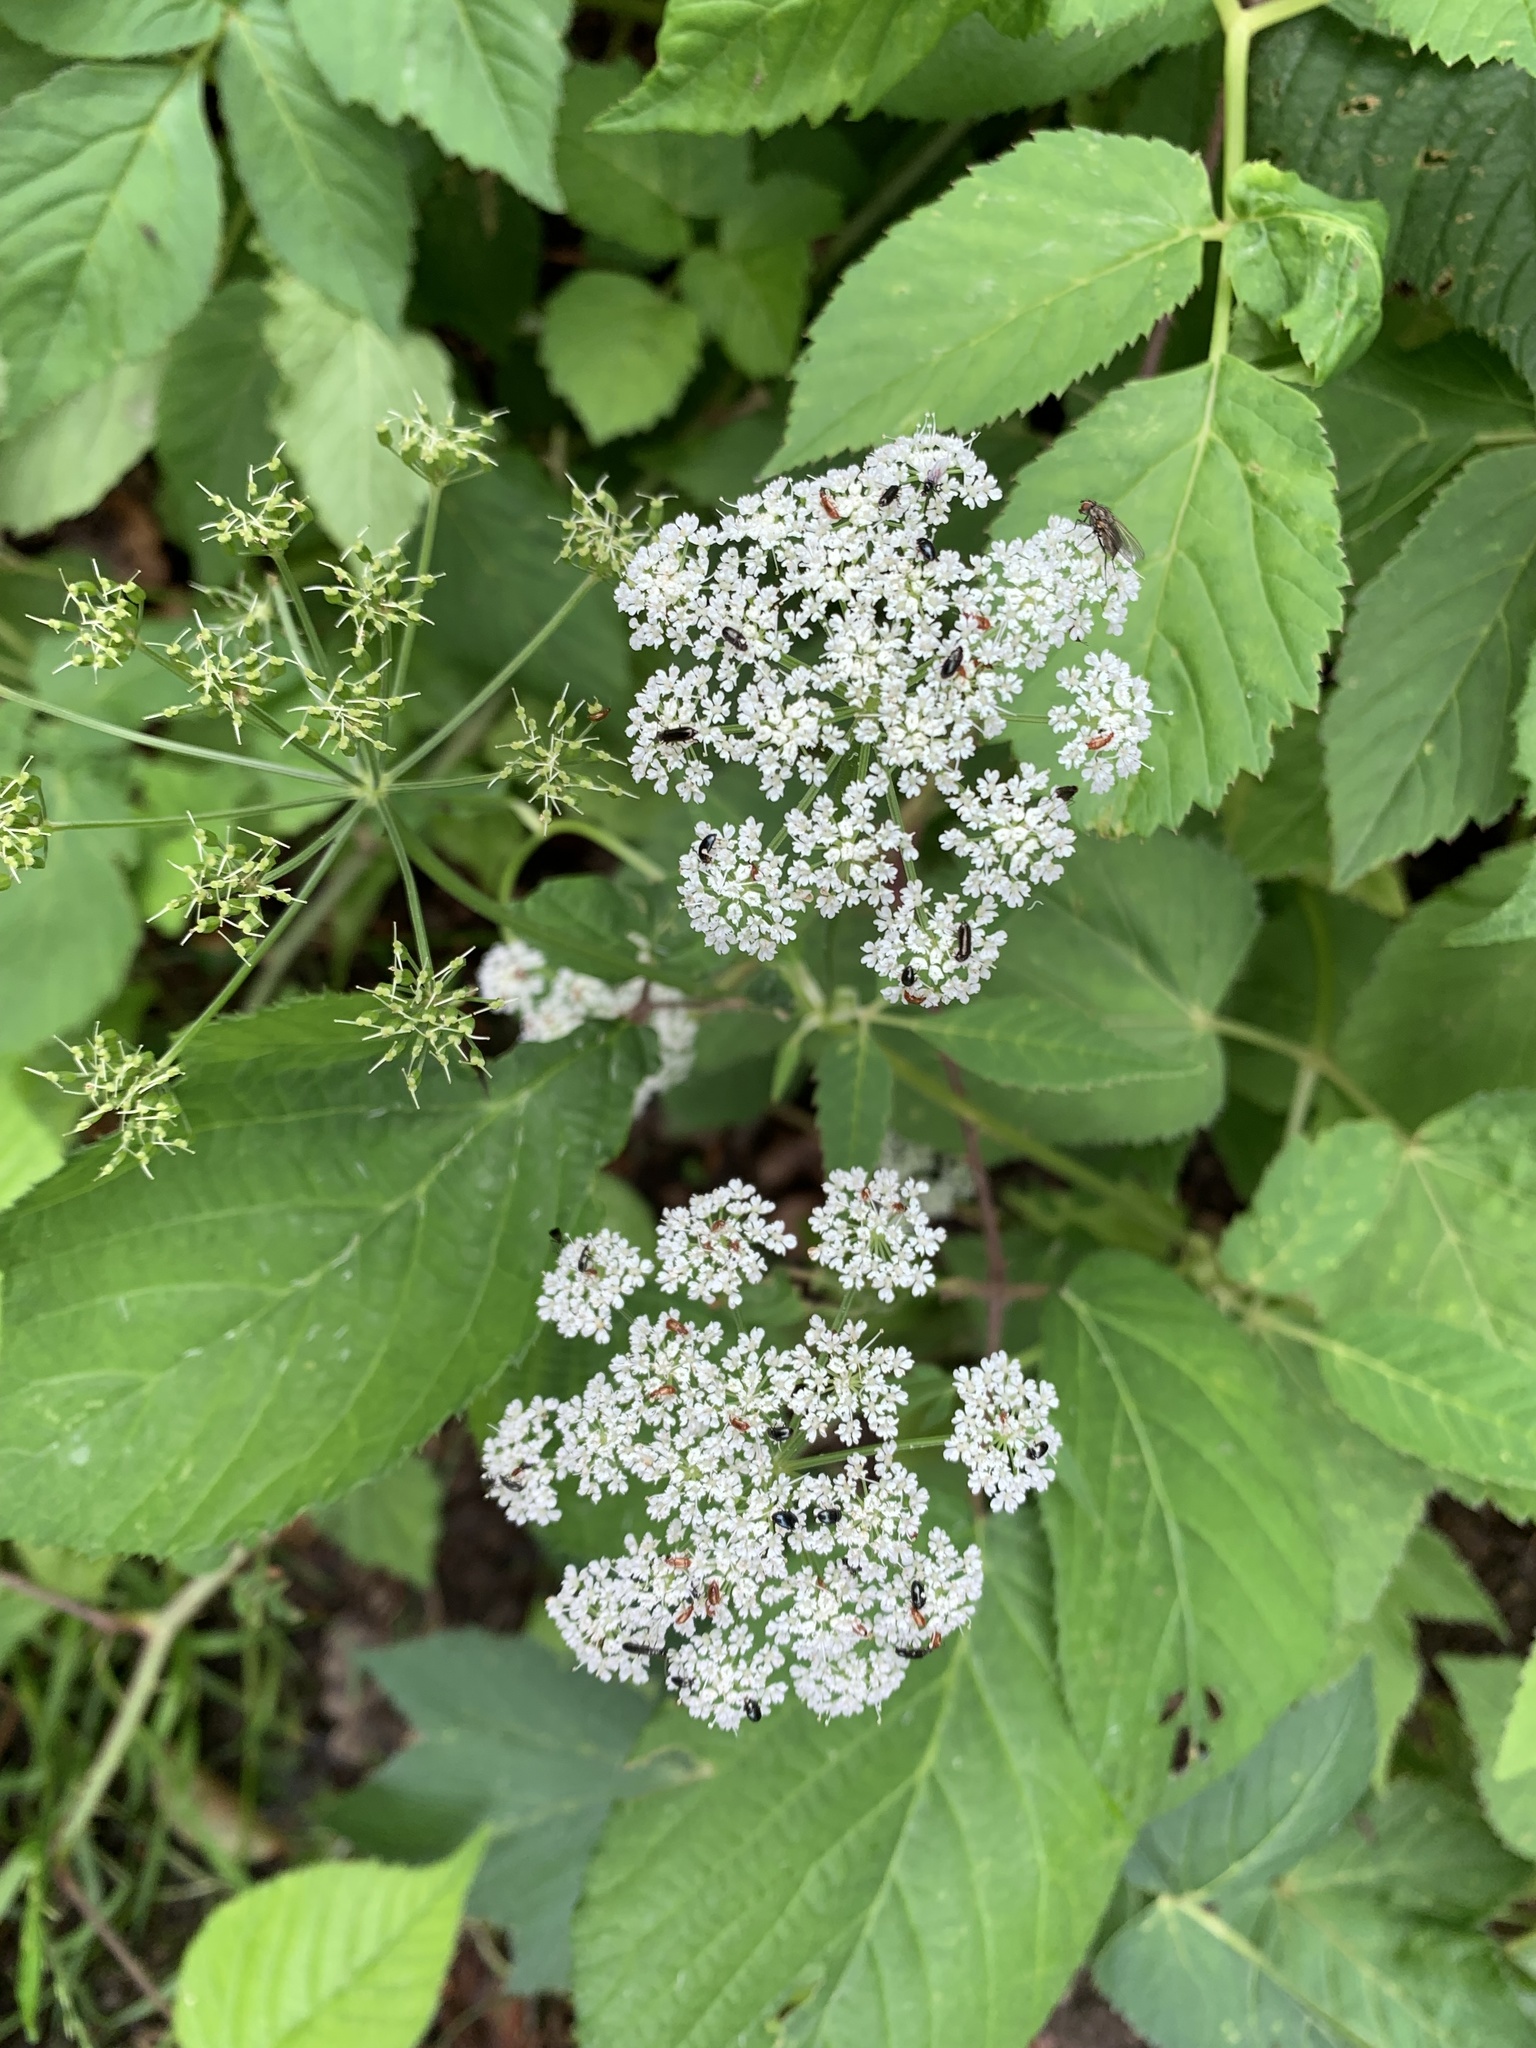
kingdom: Plantae
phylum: Tracheophyta
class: Magnoliopsida
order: Apiales
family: Apiaceae
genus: Aegopodium
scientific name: Aegopodium podagraria
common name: Ground-elder
